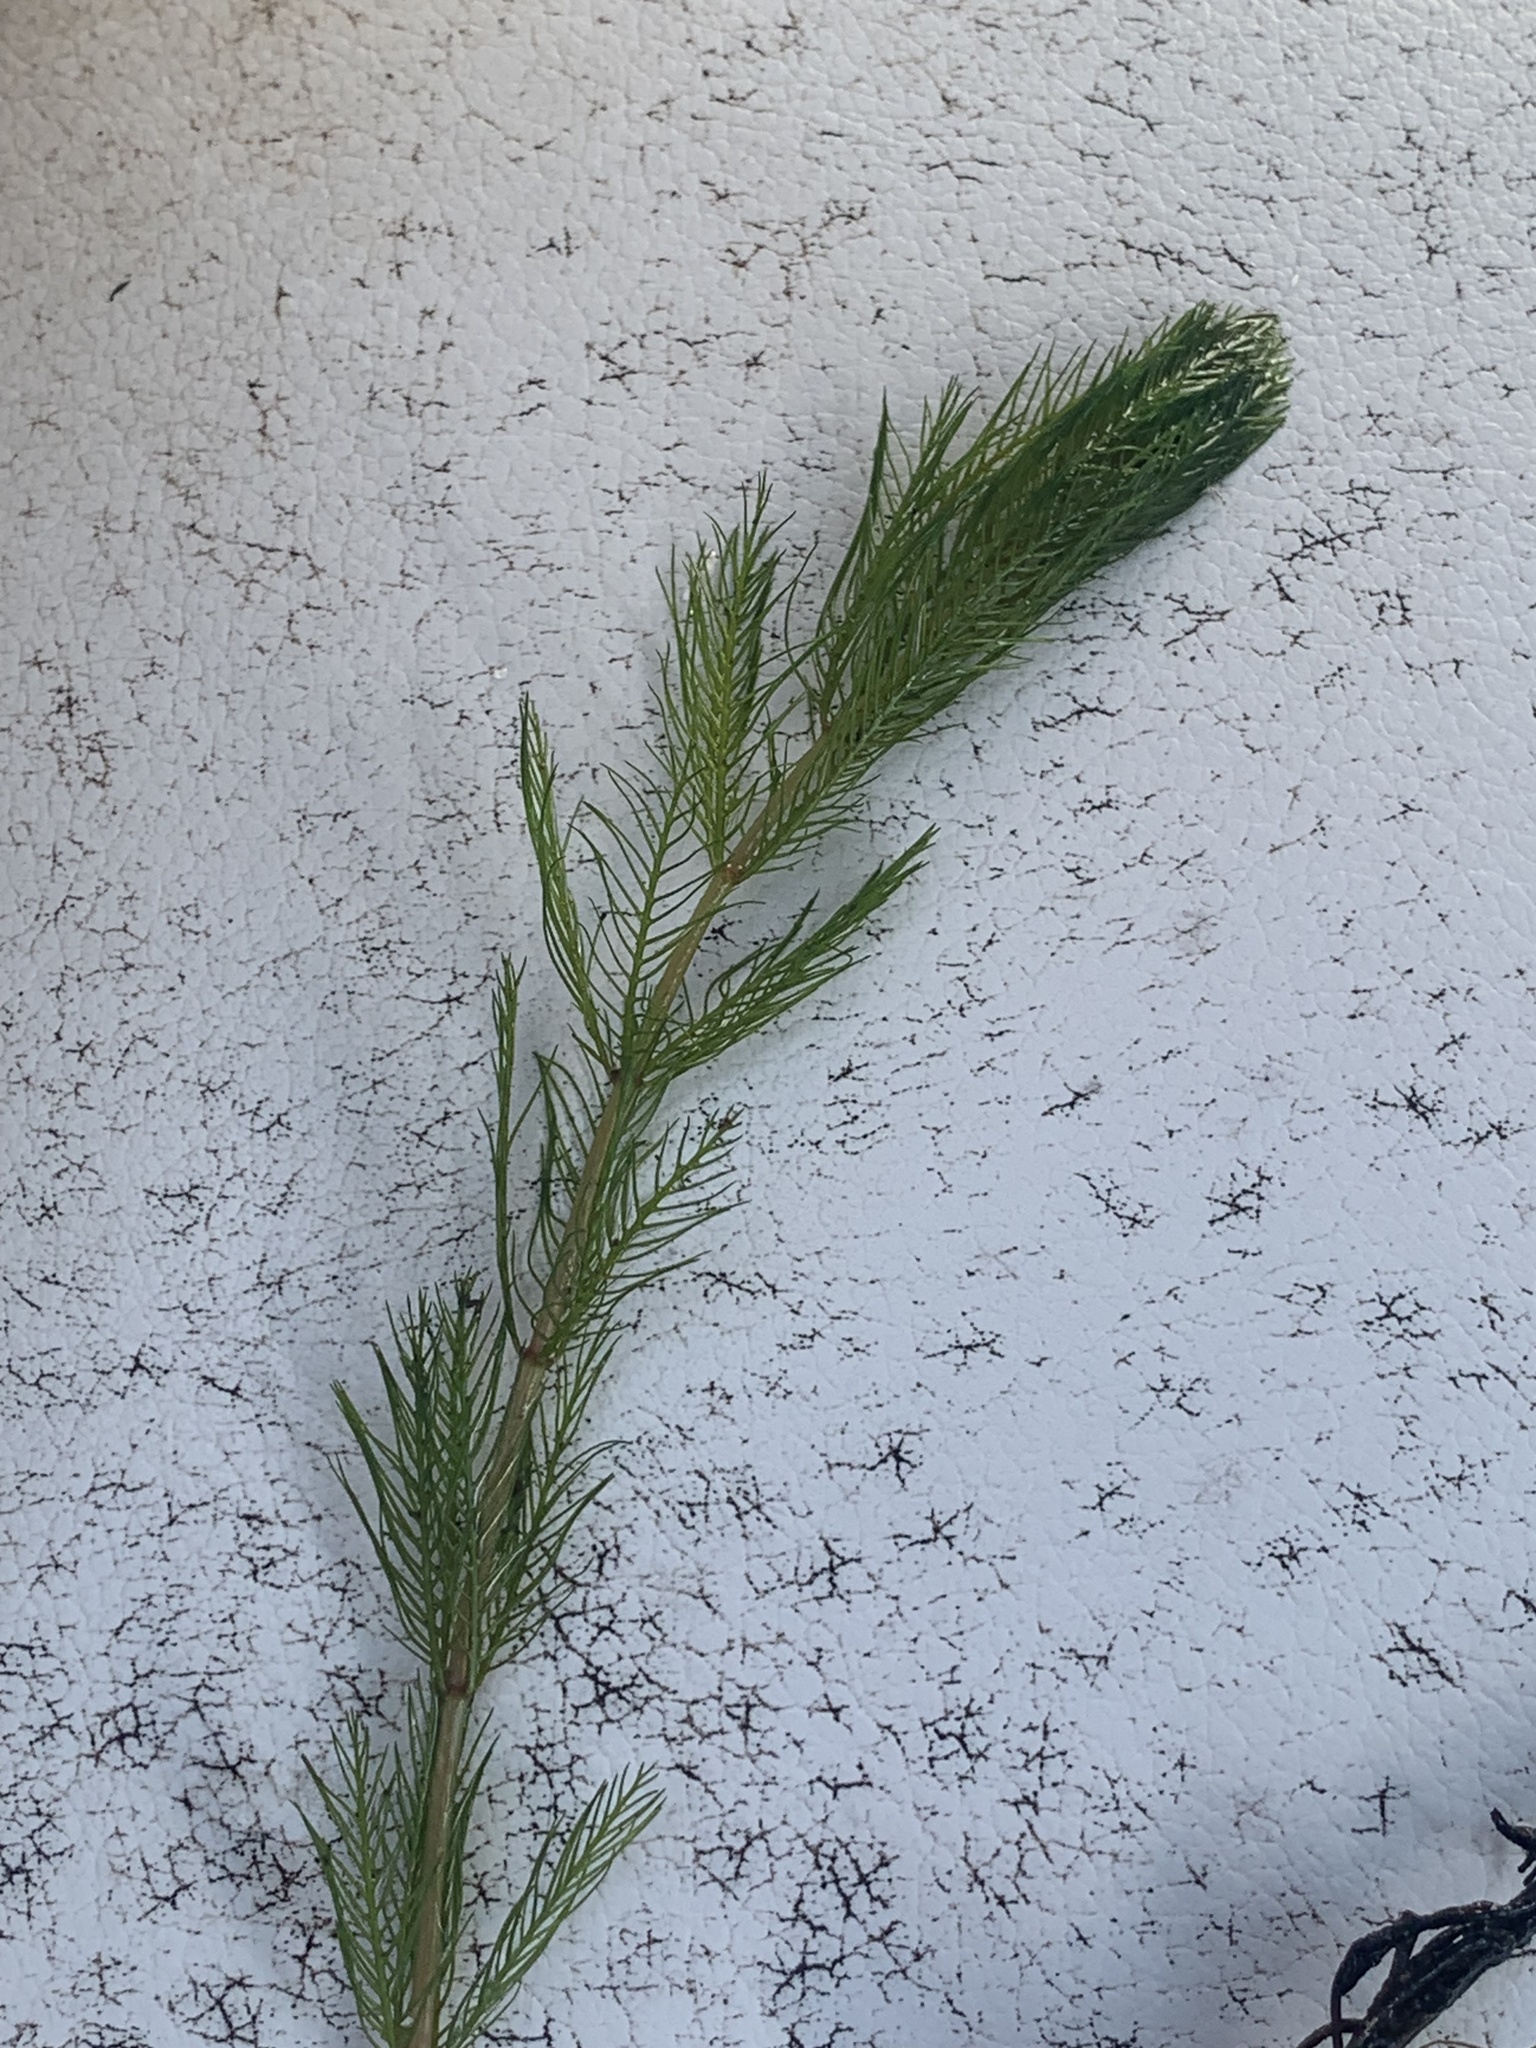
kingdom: Plantae
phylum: Tracheophyta
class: Magnoliopsida
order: Saxifragales
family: Haloragaceae
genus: Myriophyllum
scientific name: Myriophyllum spicatum
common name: Spiked water-milfoil
